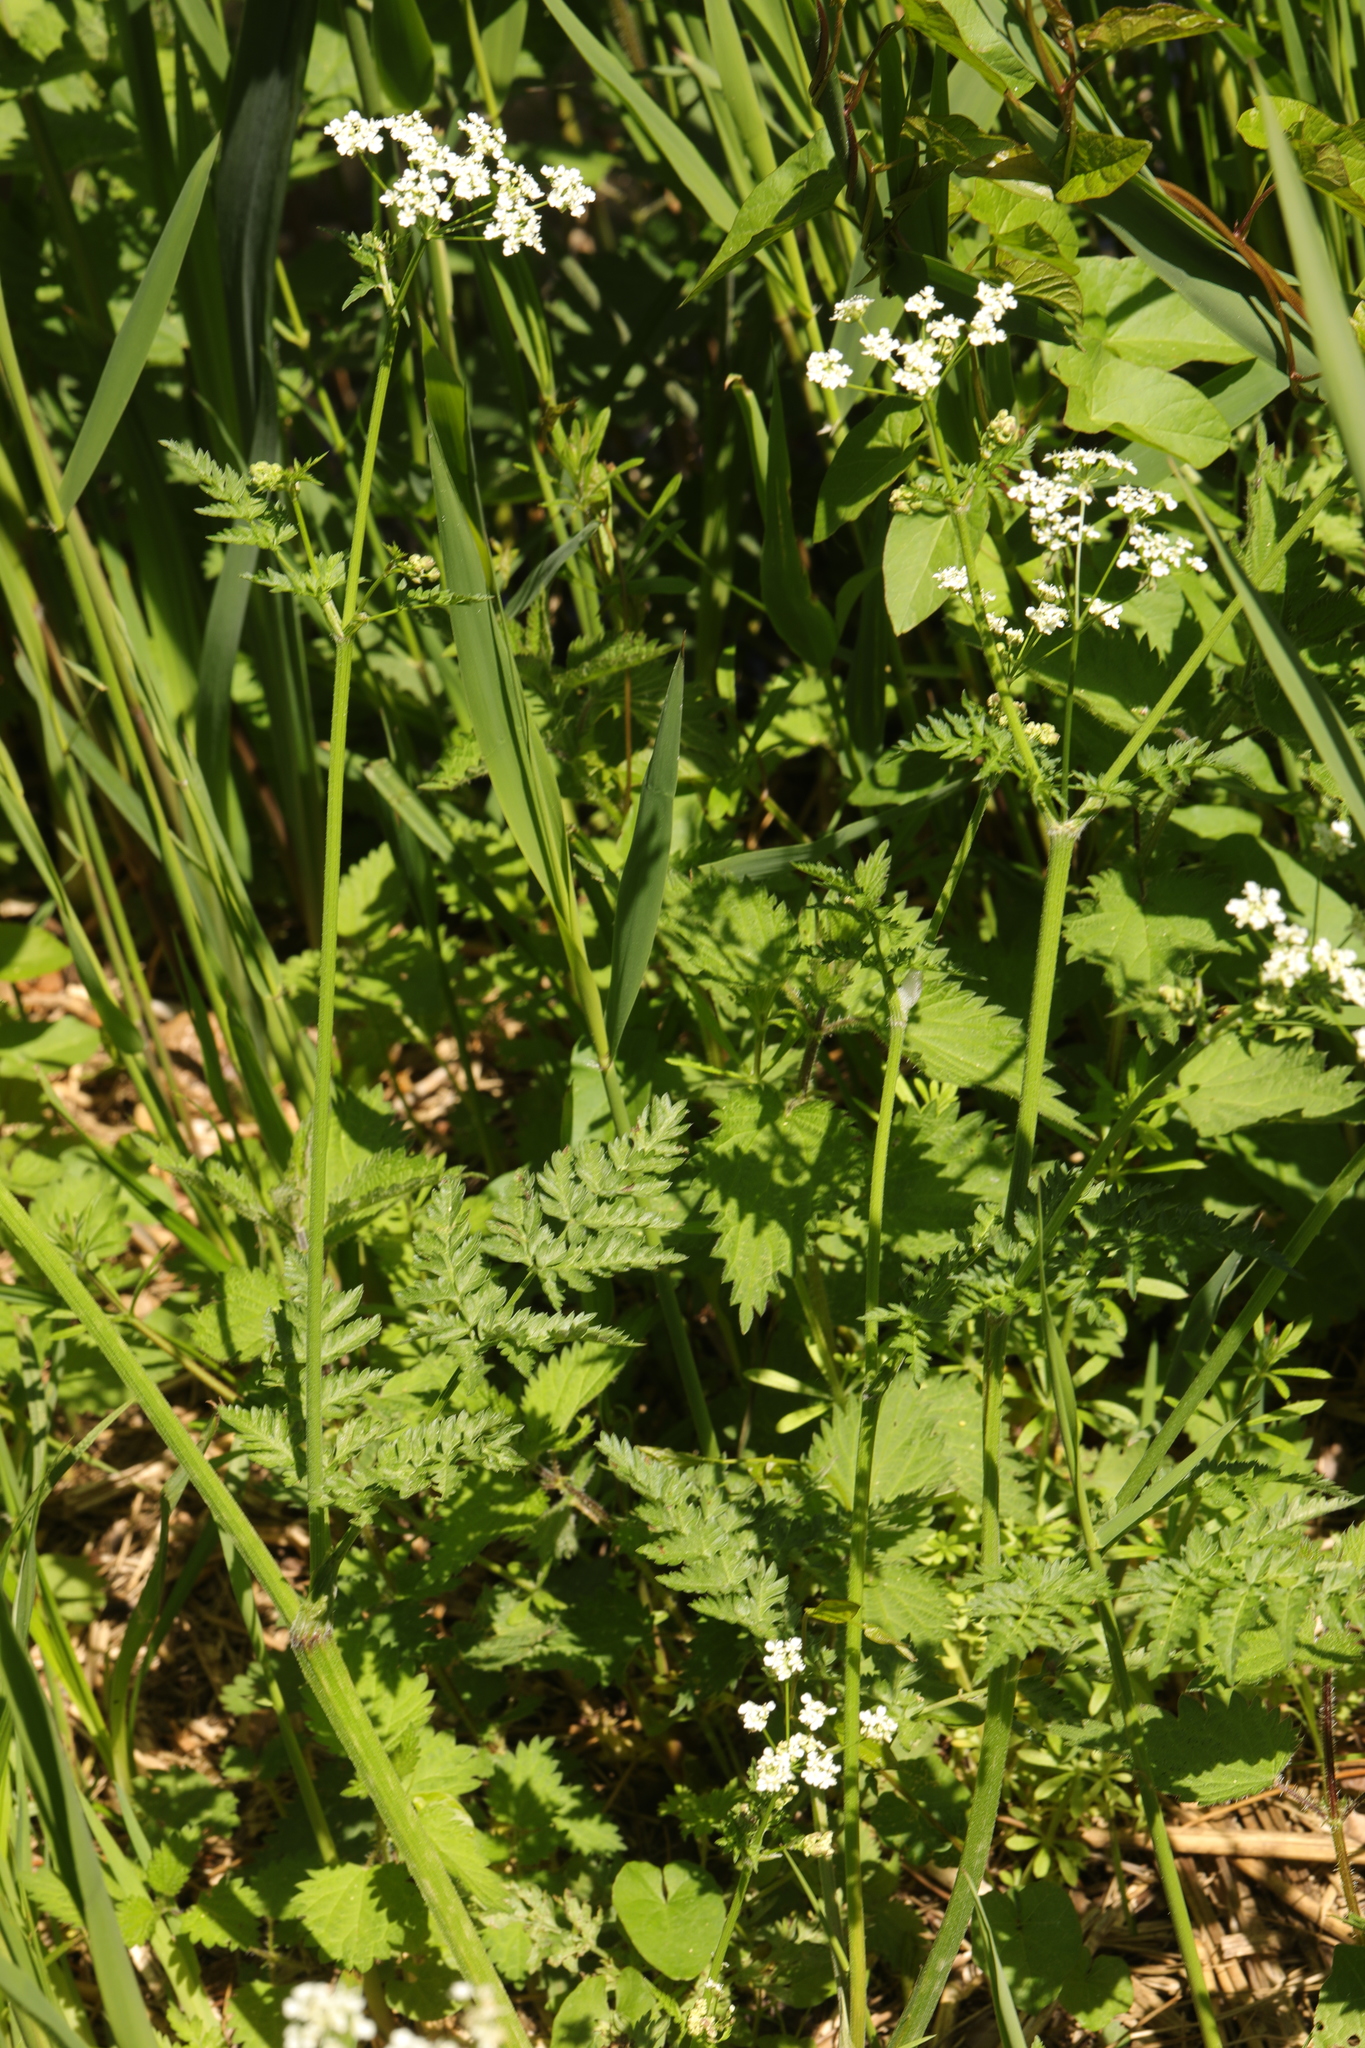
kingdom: Plantae
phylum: Tracheophyta
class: Magnoliopsida
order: Apiales
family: Apiaceae
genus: Anthriscus
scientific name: Anthriscus sylvestris
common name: Cow parsley
